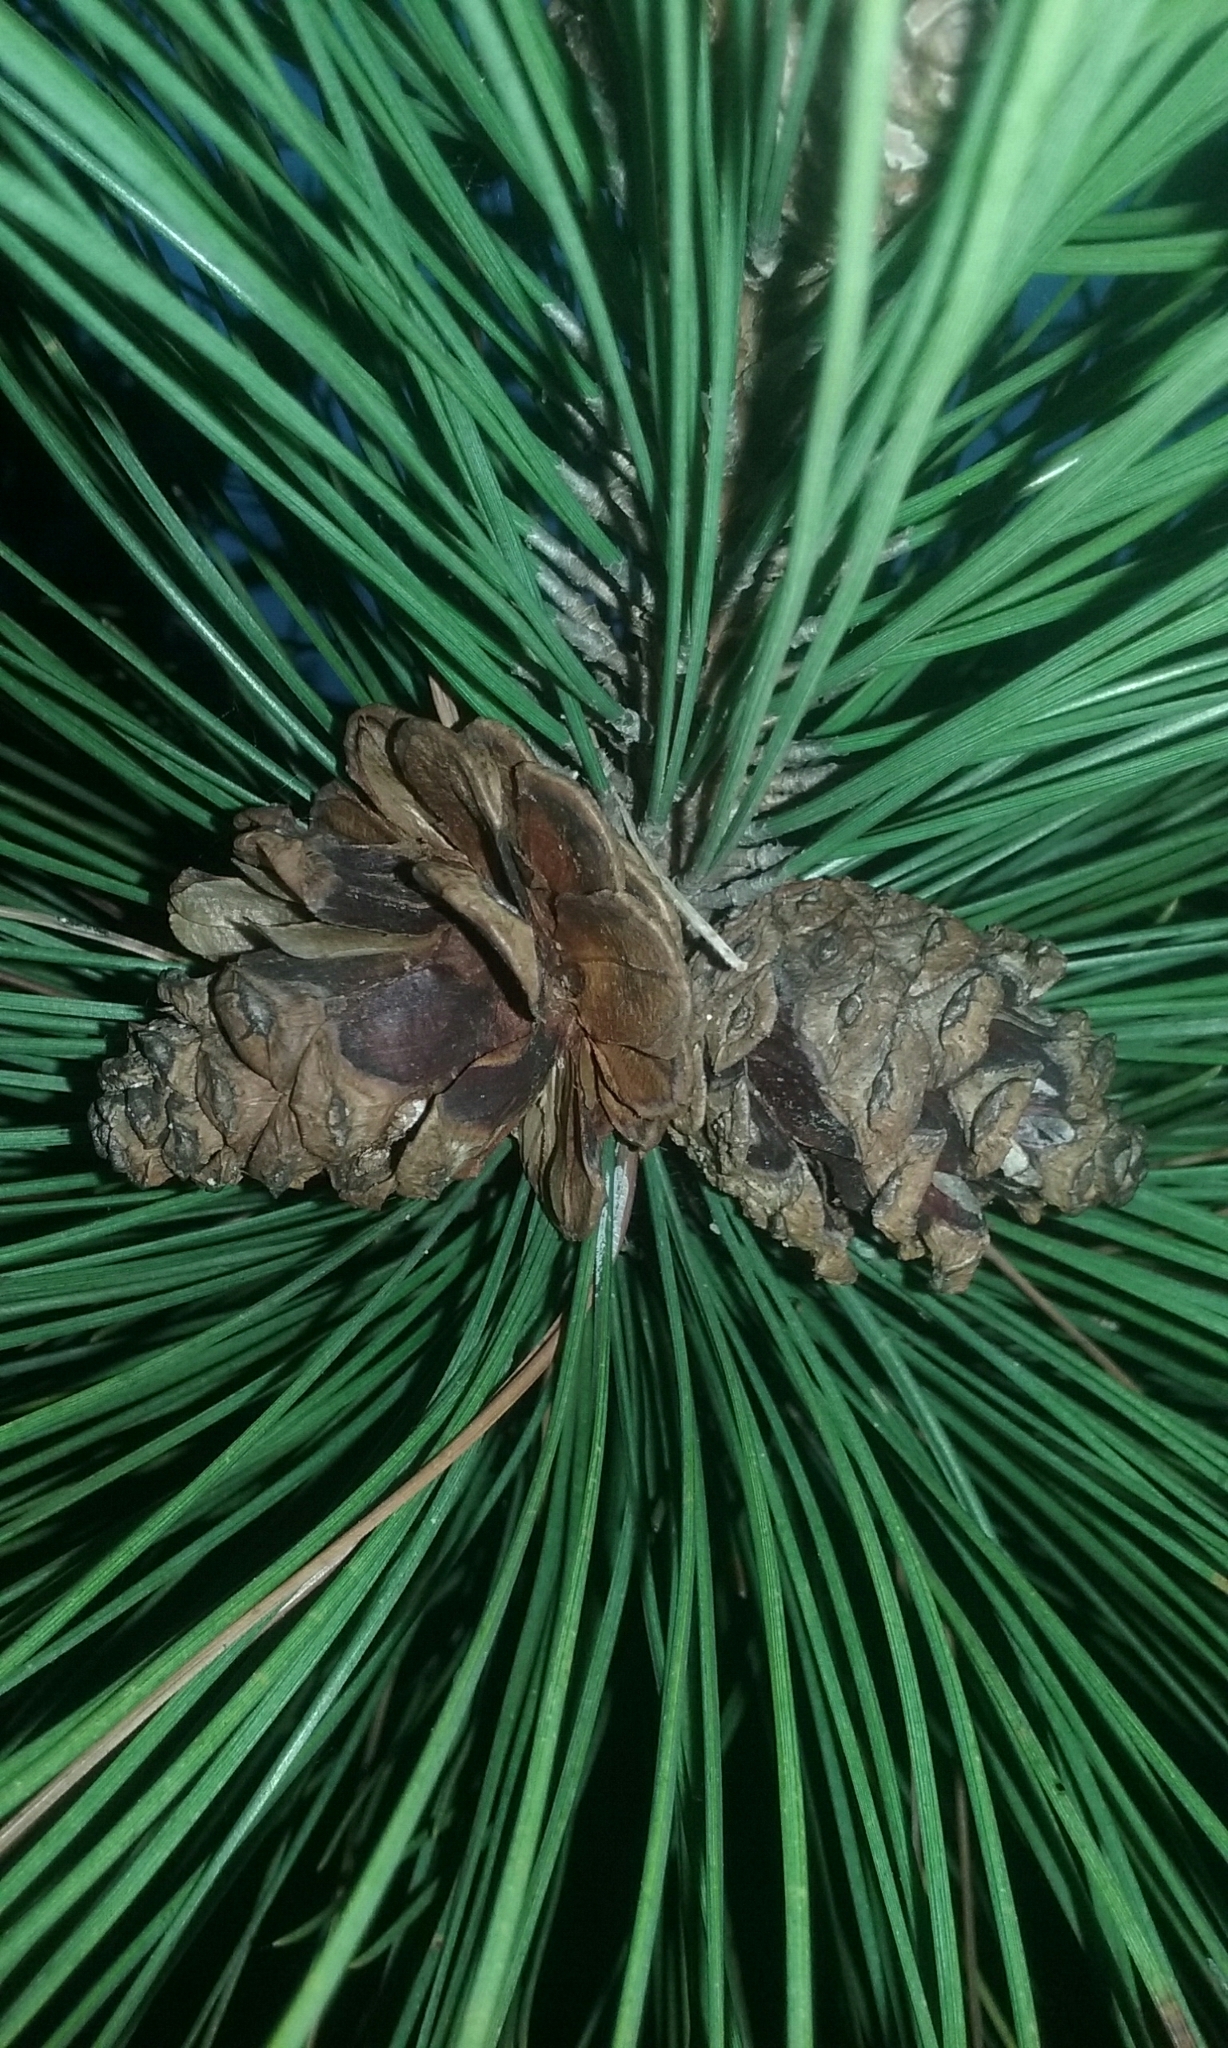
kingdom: Plantae
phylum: Tracheophyta
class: Pinopsida
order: Pinales
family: Pinaceae
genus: Pinus
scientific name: Pinus resinosa
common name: Norway pine
